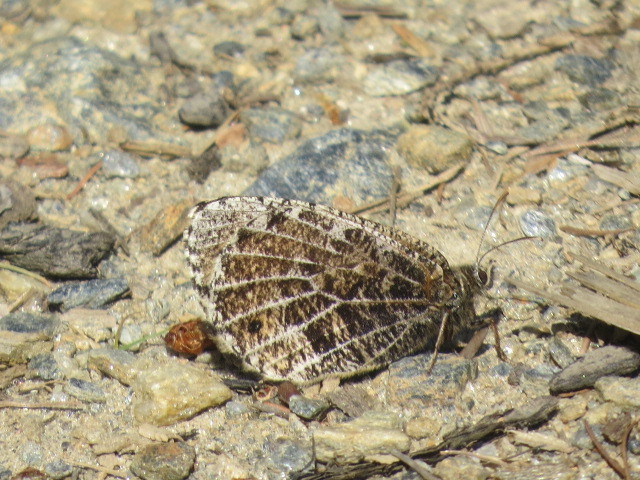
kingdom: Animalia
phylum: Arthropoda
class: Insecta
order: Lepidoptera
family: Nymphalidae
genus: Oeneis
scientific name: Oeneis aello
